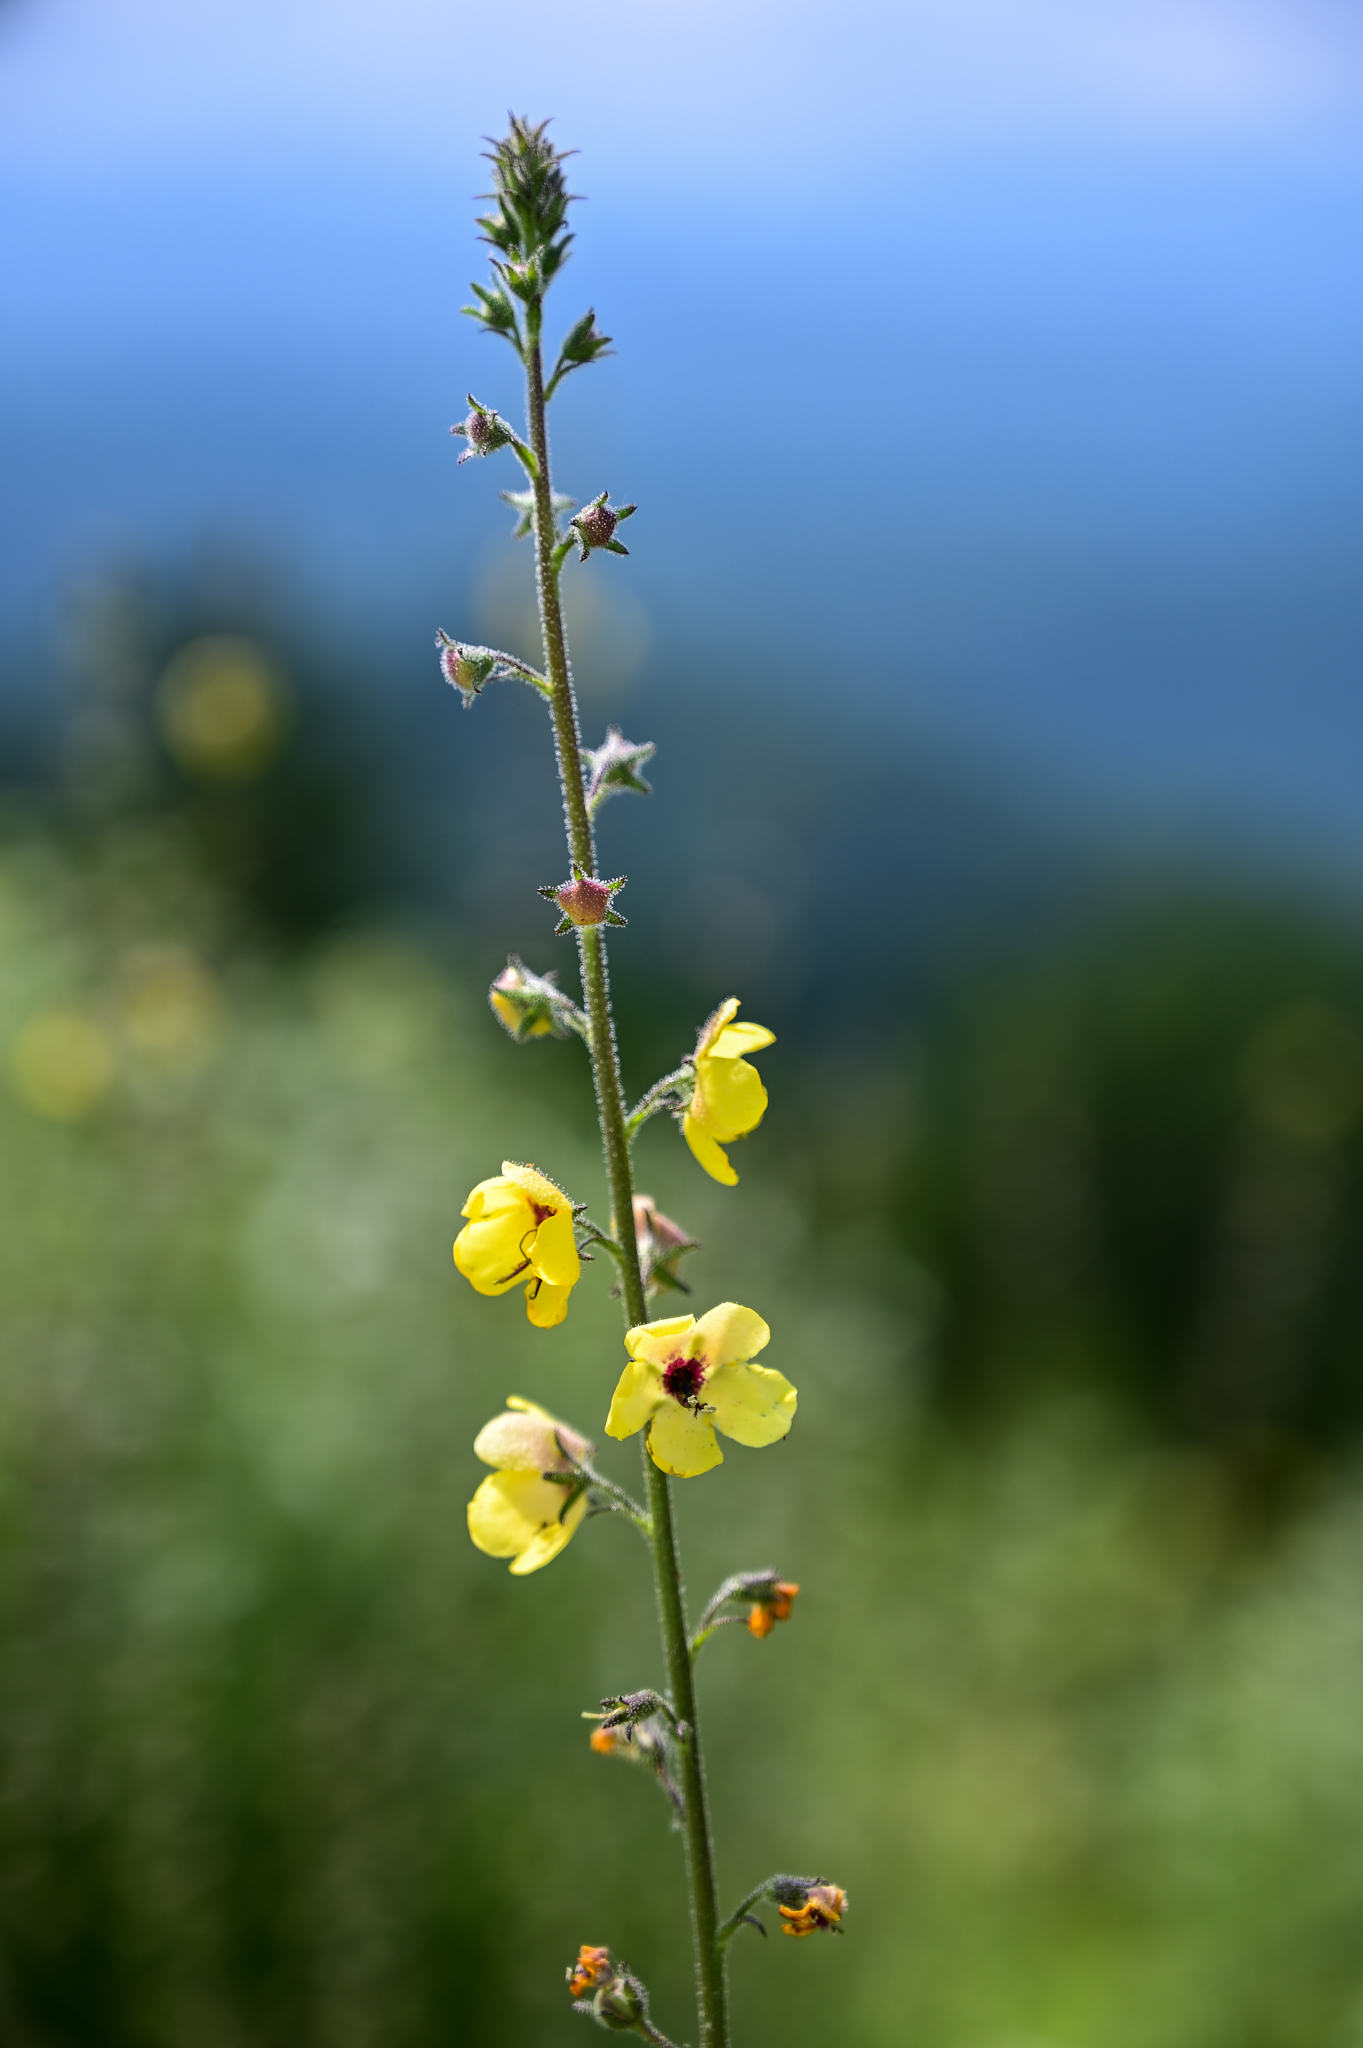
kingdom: Plantae
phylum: Tracheophyta
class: Magnoliopsida
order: Lamiales
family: Scrophulariaceae
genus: Verbascum
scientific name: Verbascum blattaria
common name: Moth mullein
